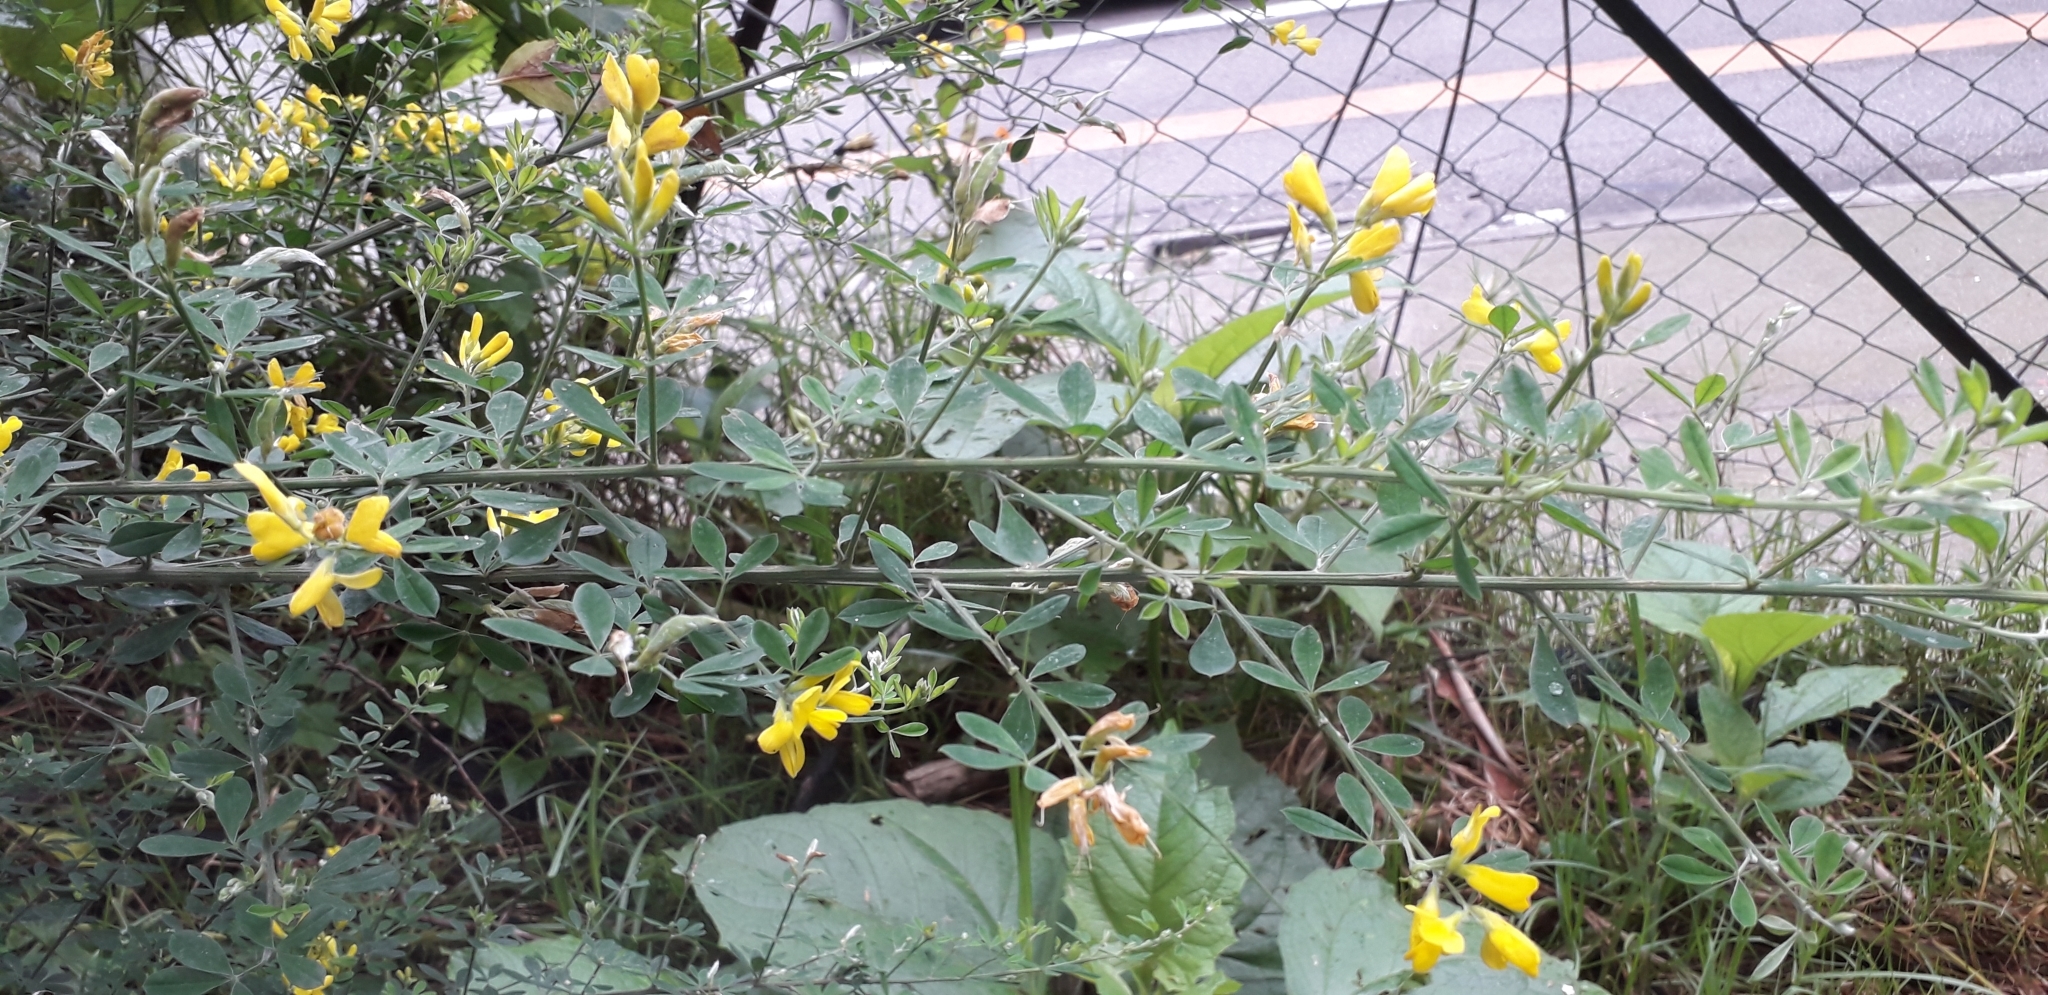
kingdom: Plantae
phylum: Tracheophyta
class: Magnoliopsida
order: Fabales
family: Fabaceae
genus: Genista
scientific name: Genista monspessulana
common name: Montpellier broom
